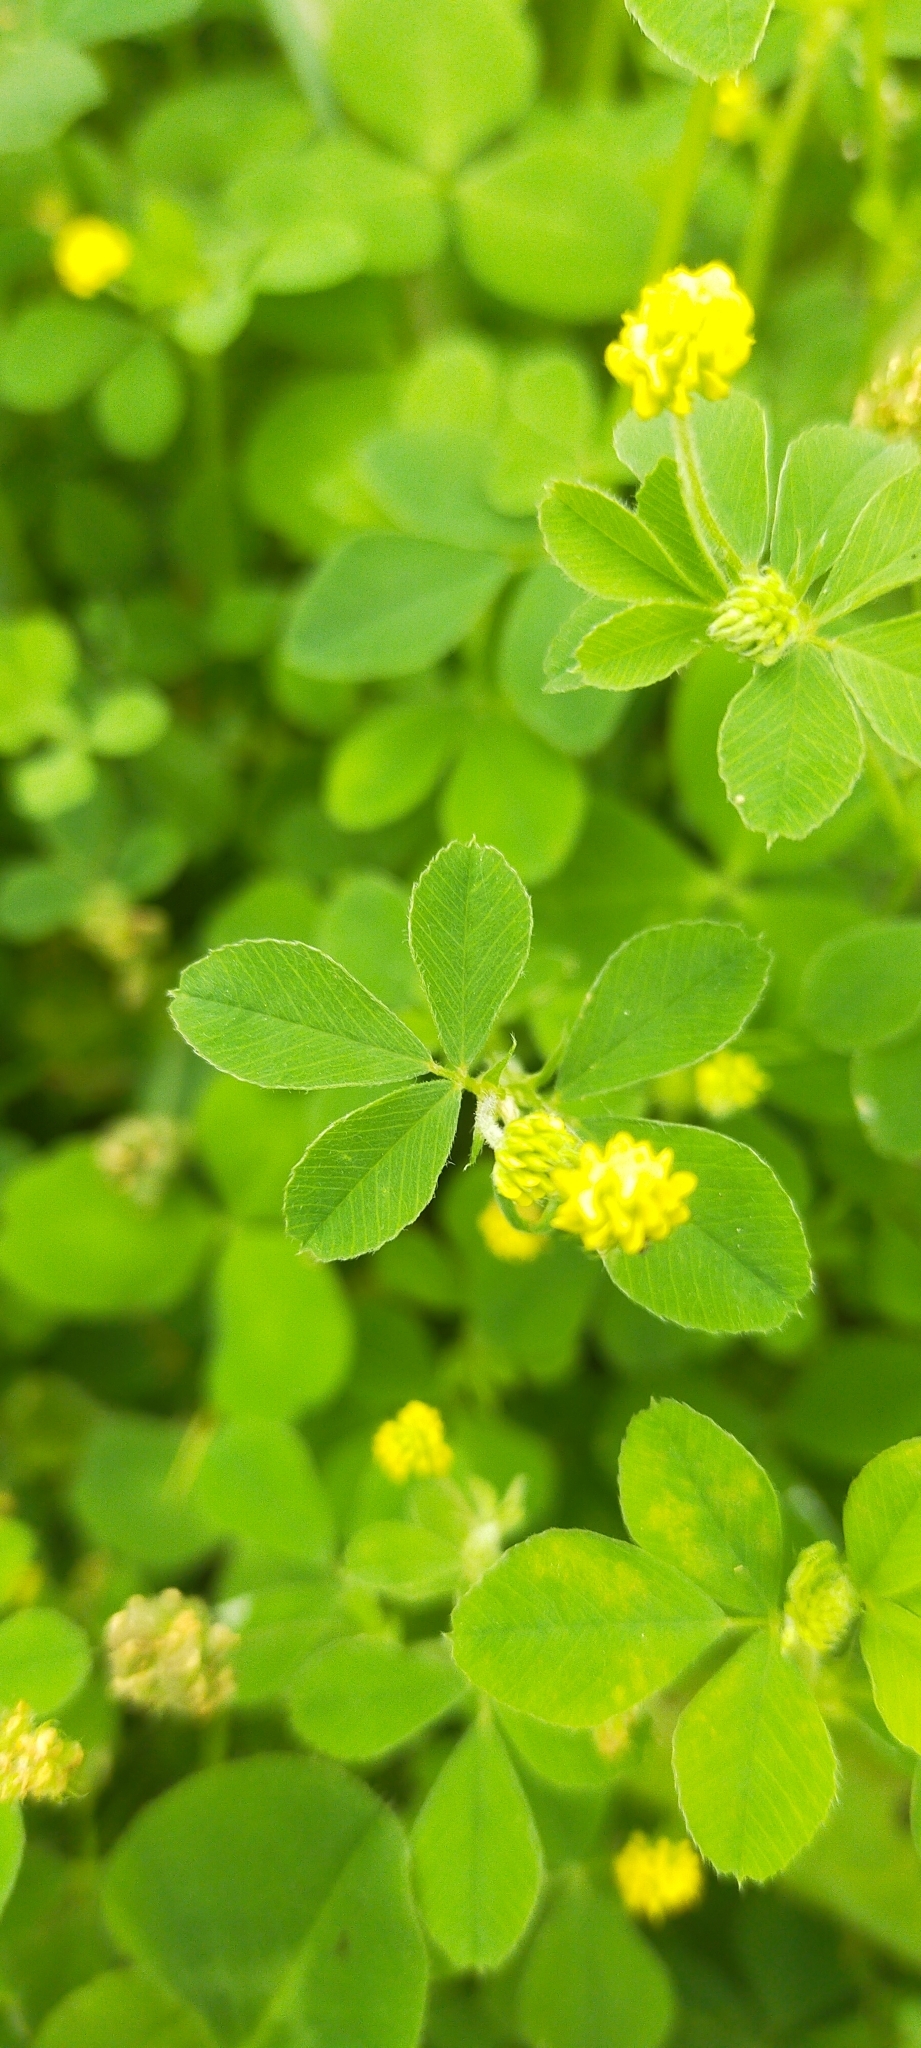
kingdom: Plantae
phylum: Tracheophyta
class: Magnoliopsida
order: Fabales
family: Fabaceae
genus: Medicago
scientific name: Medicago lupulina
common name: Black medick
